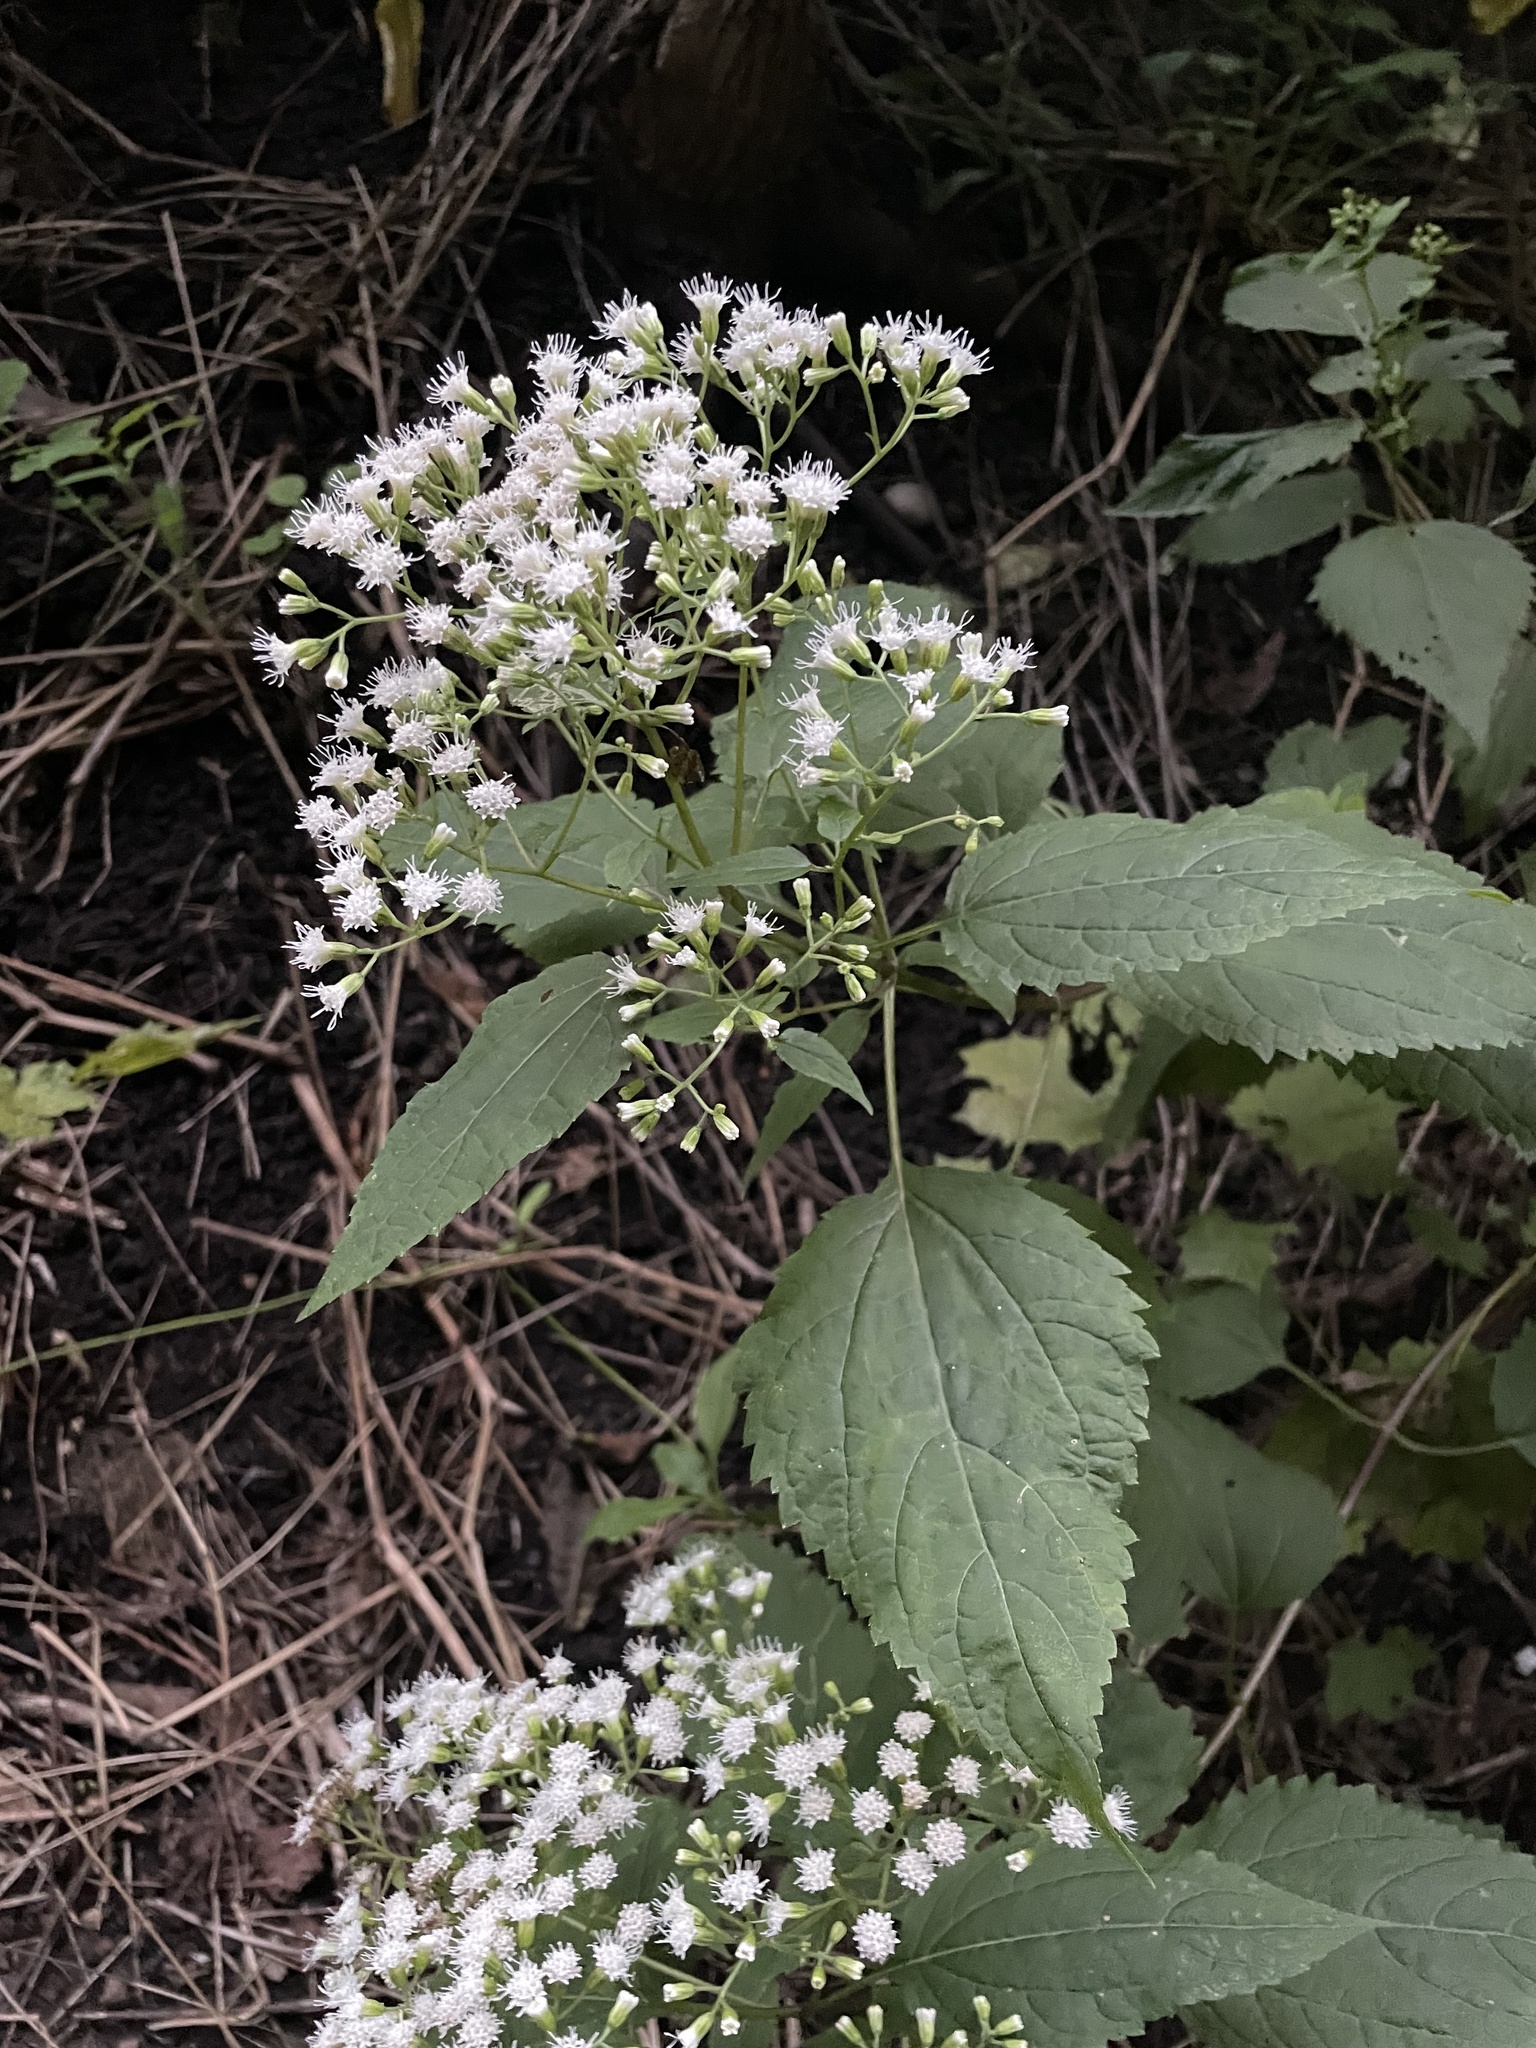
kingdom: Plantae
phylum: Tracheophyta
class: Magnoliopsida
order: Asterales
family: Asteraceae
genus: Ageratina
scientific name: Ageratina altissima
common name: White snakeroot
